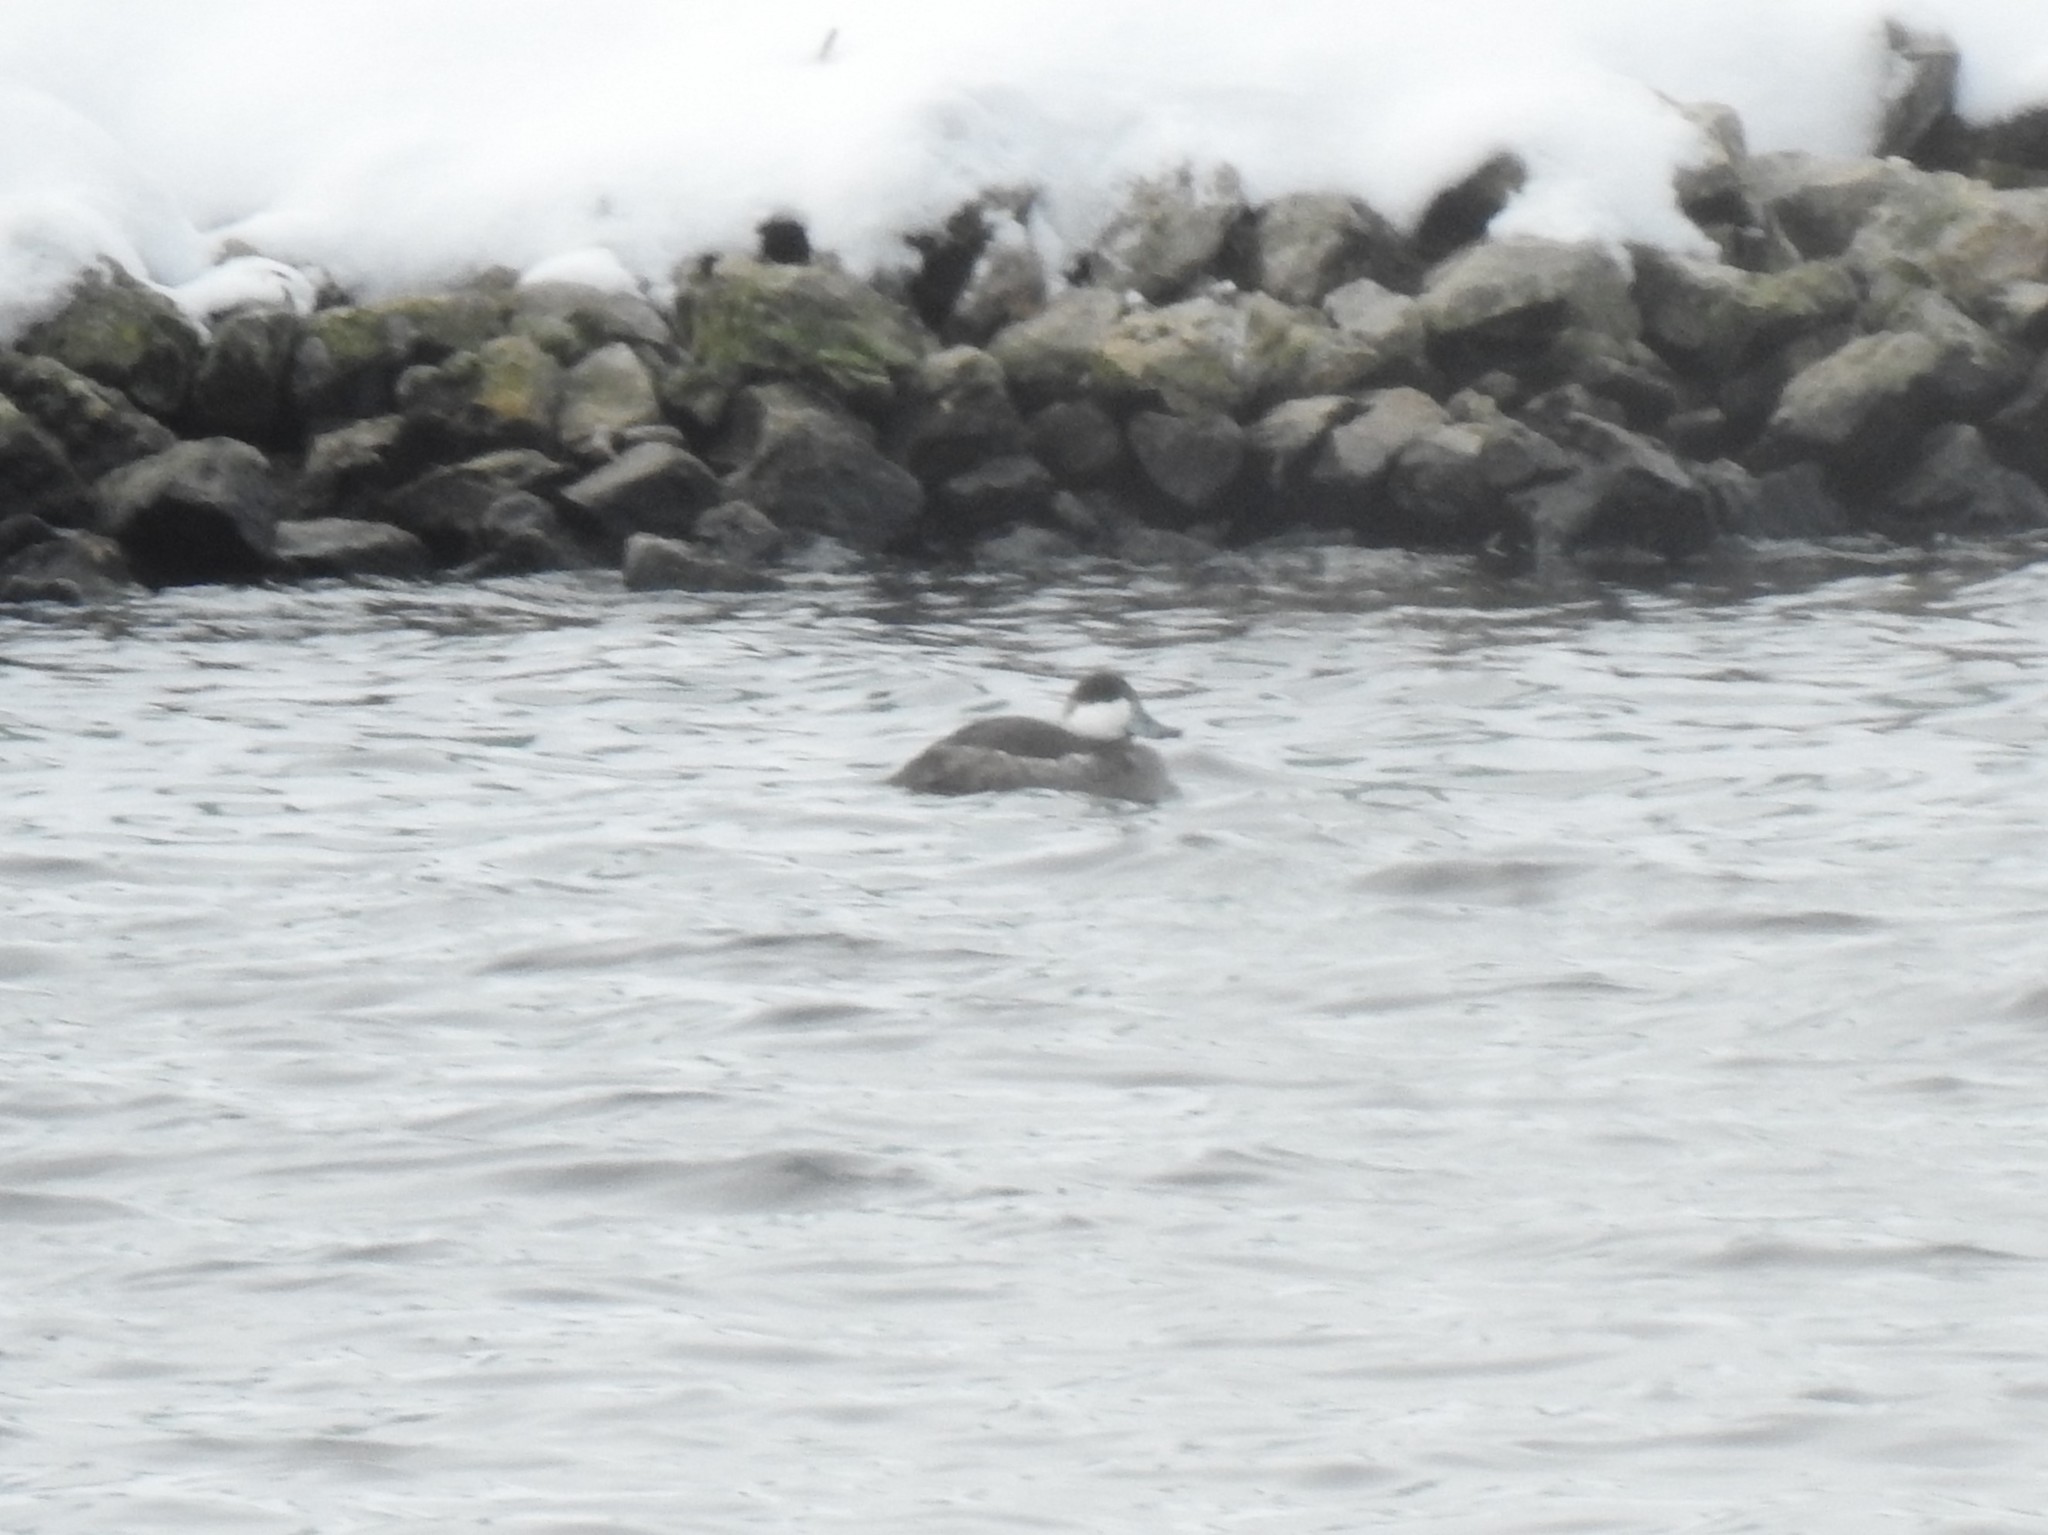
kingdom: Animalia
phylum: Chordata
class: Aves
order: Anseriformes
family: Anatidae
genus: Oxyura
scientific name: Oxyura jamaicensis
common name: Ruddy duck
